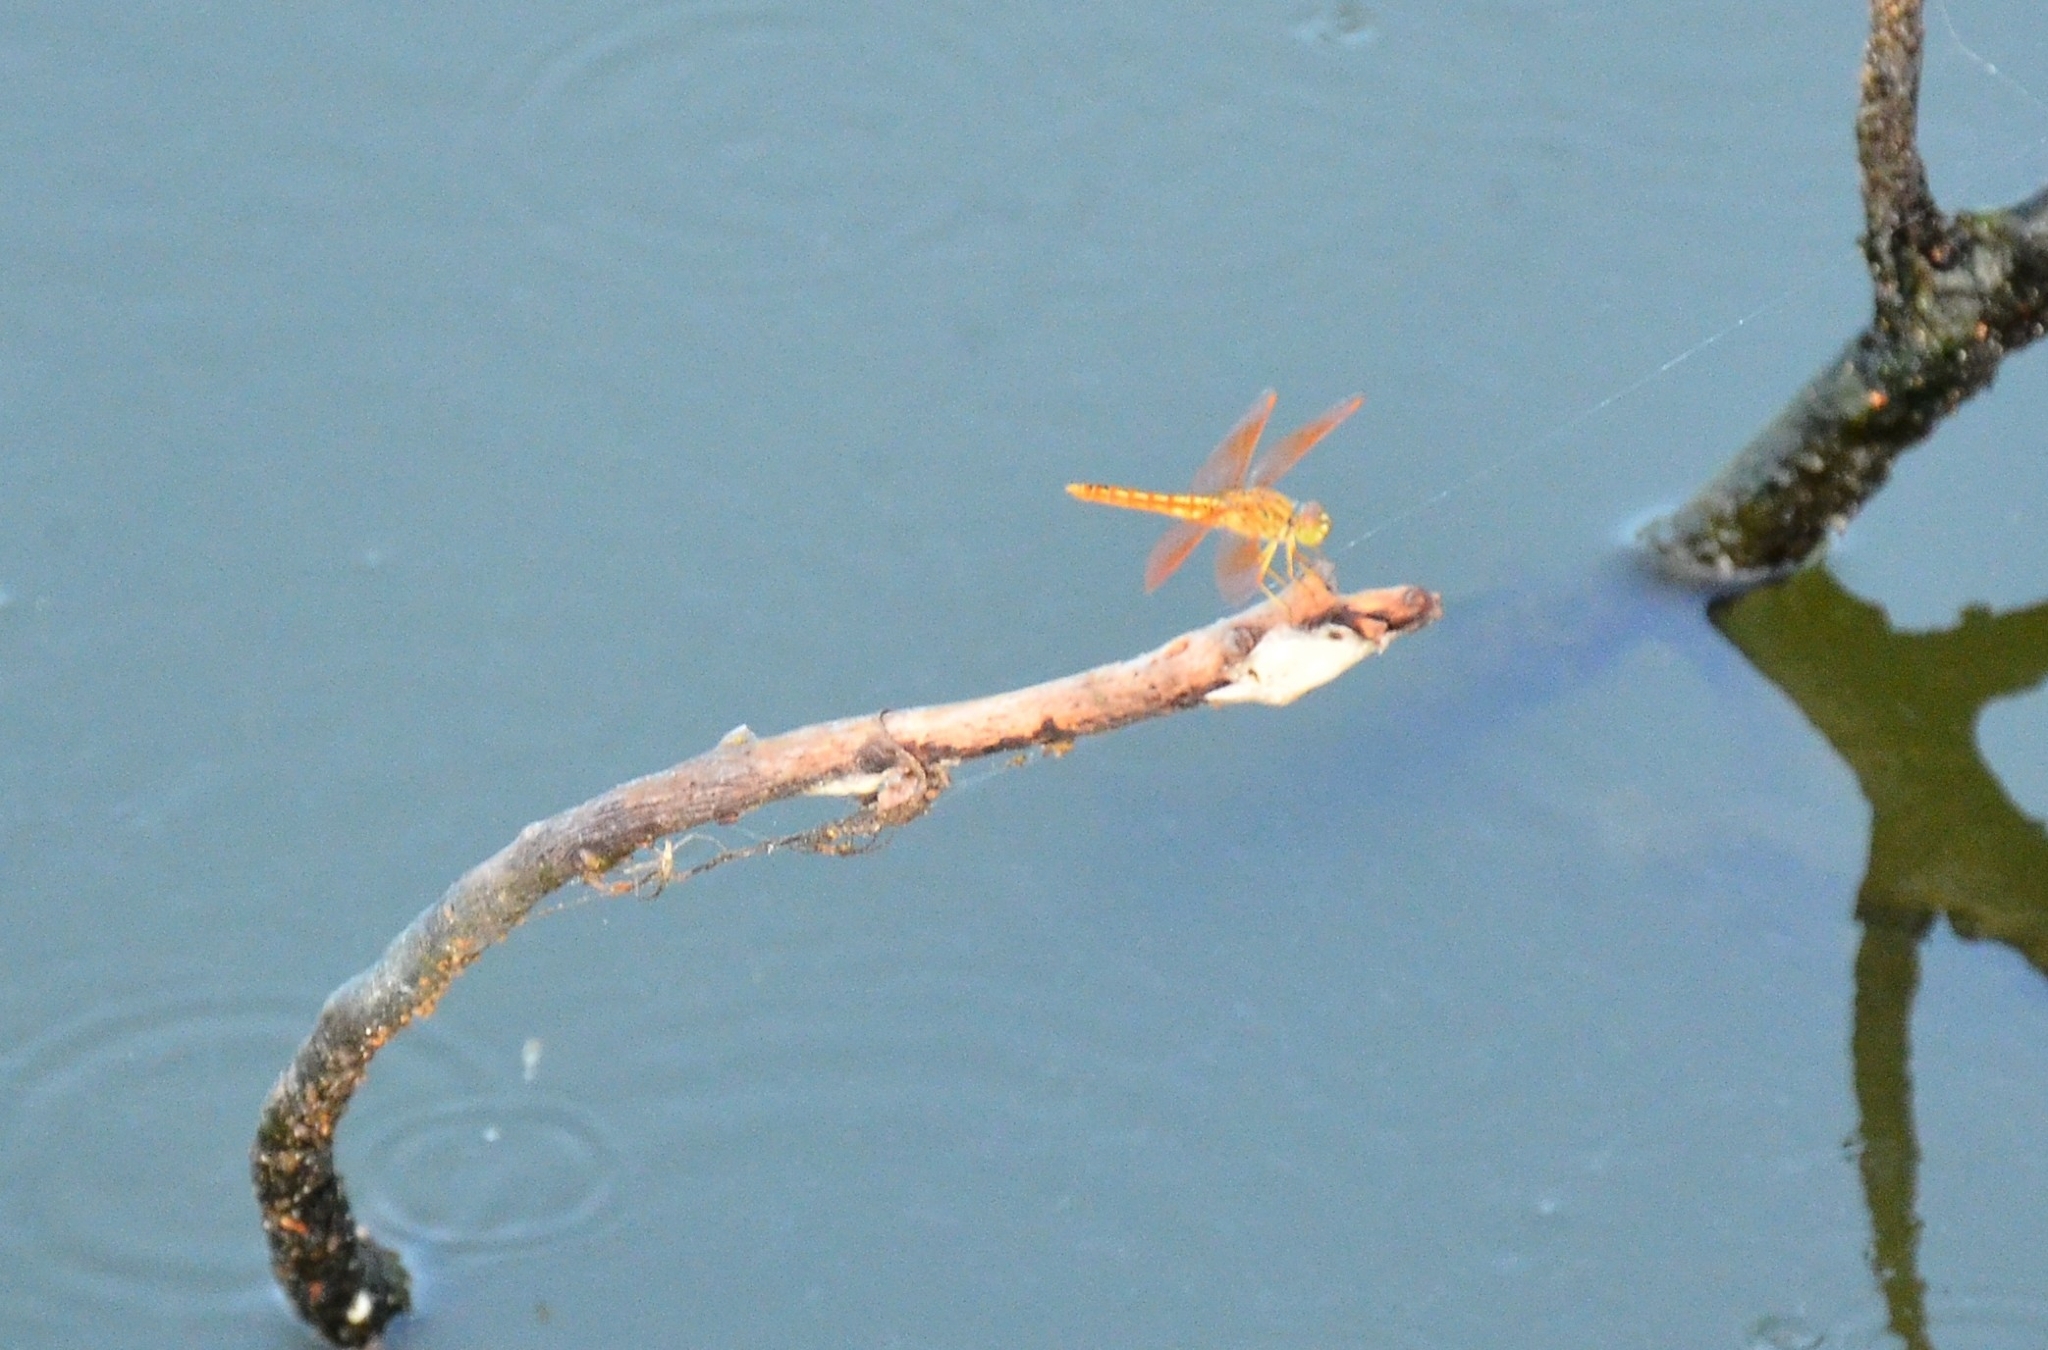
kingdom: Animalia
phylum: Arthropoda
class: Insecta
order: Odonata
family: Libellulidae
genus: Brachythemis
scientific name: Brachythemis contaminata
